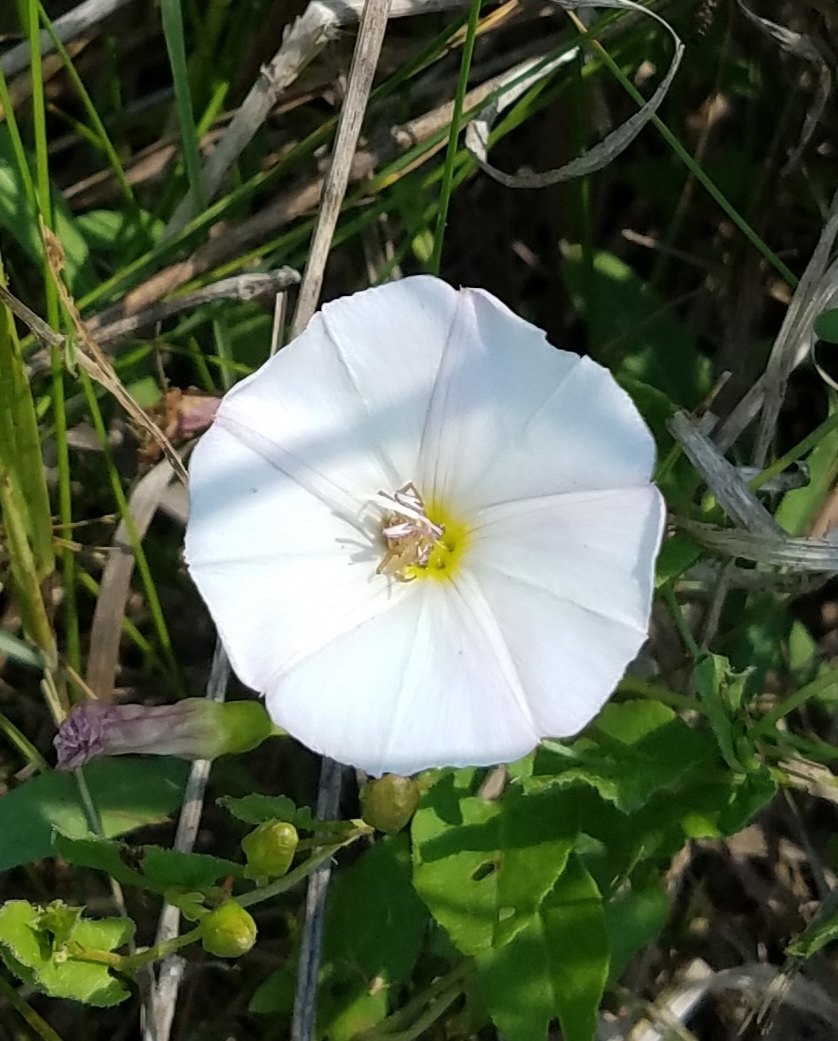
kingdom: Plantae
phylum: Tracheophyta
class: Magnoliopsida
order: Solanales
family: Convolvulaceae
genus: Convolvulus
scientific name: Convolvulus arvensis
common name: Field bindweed
